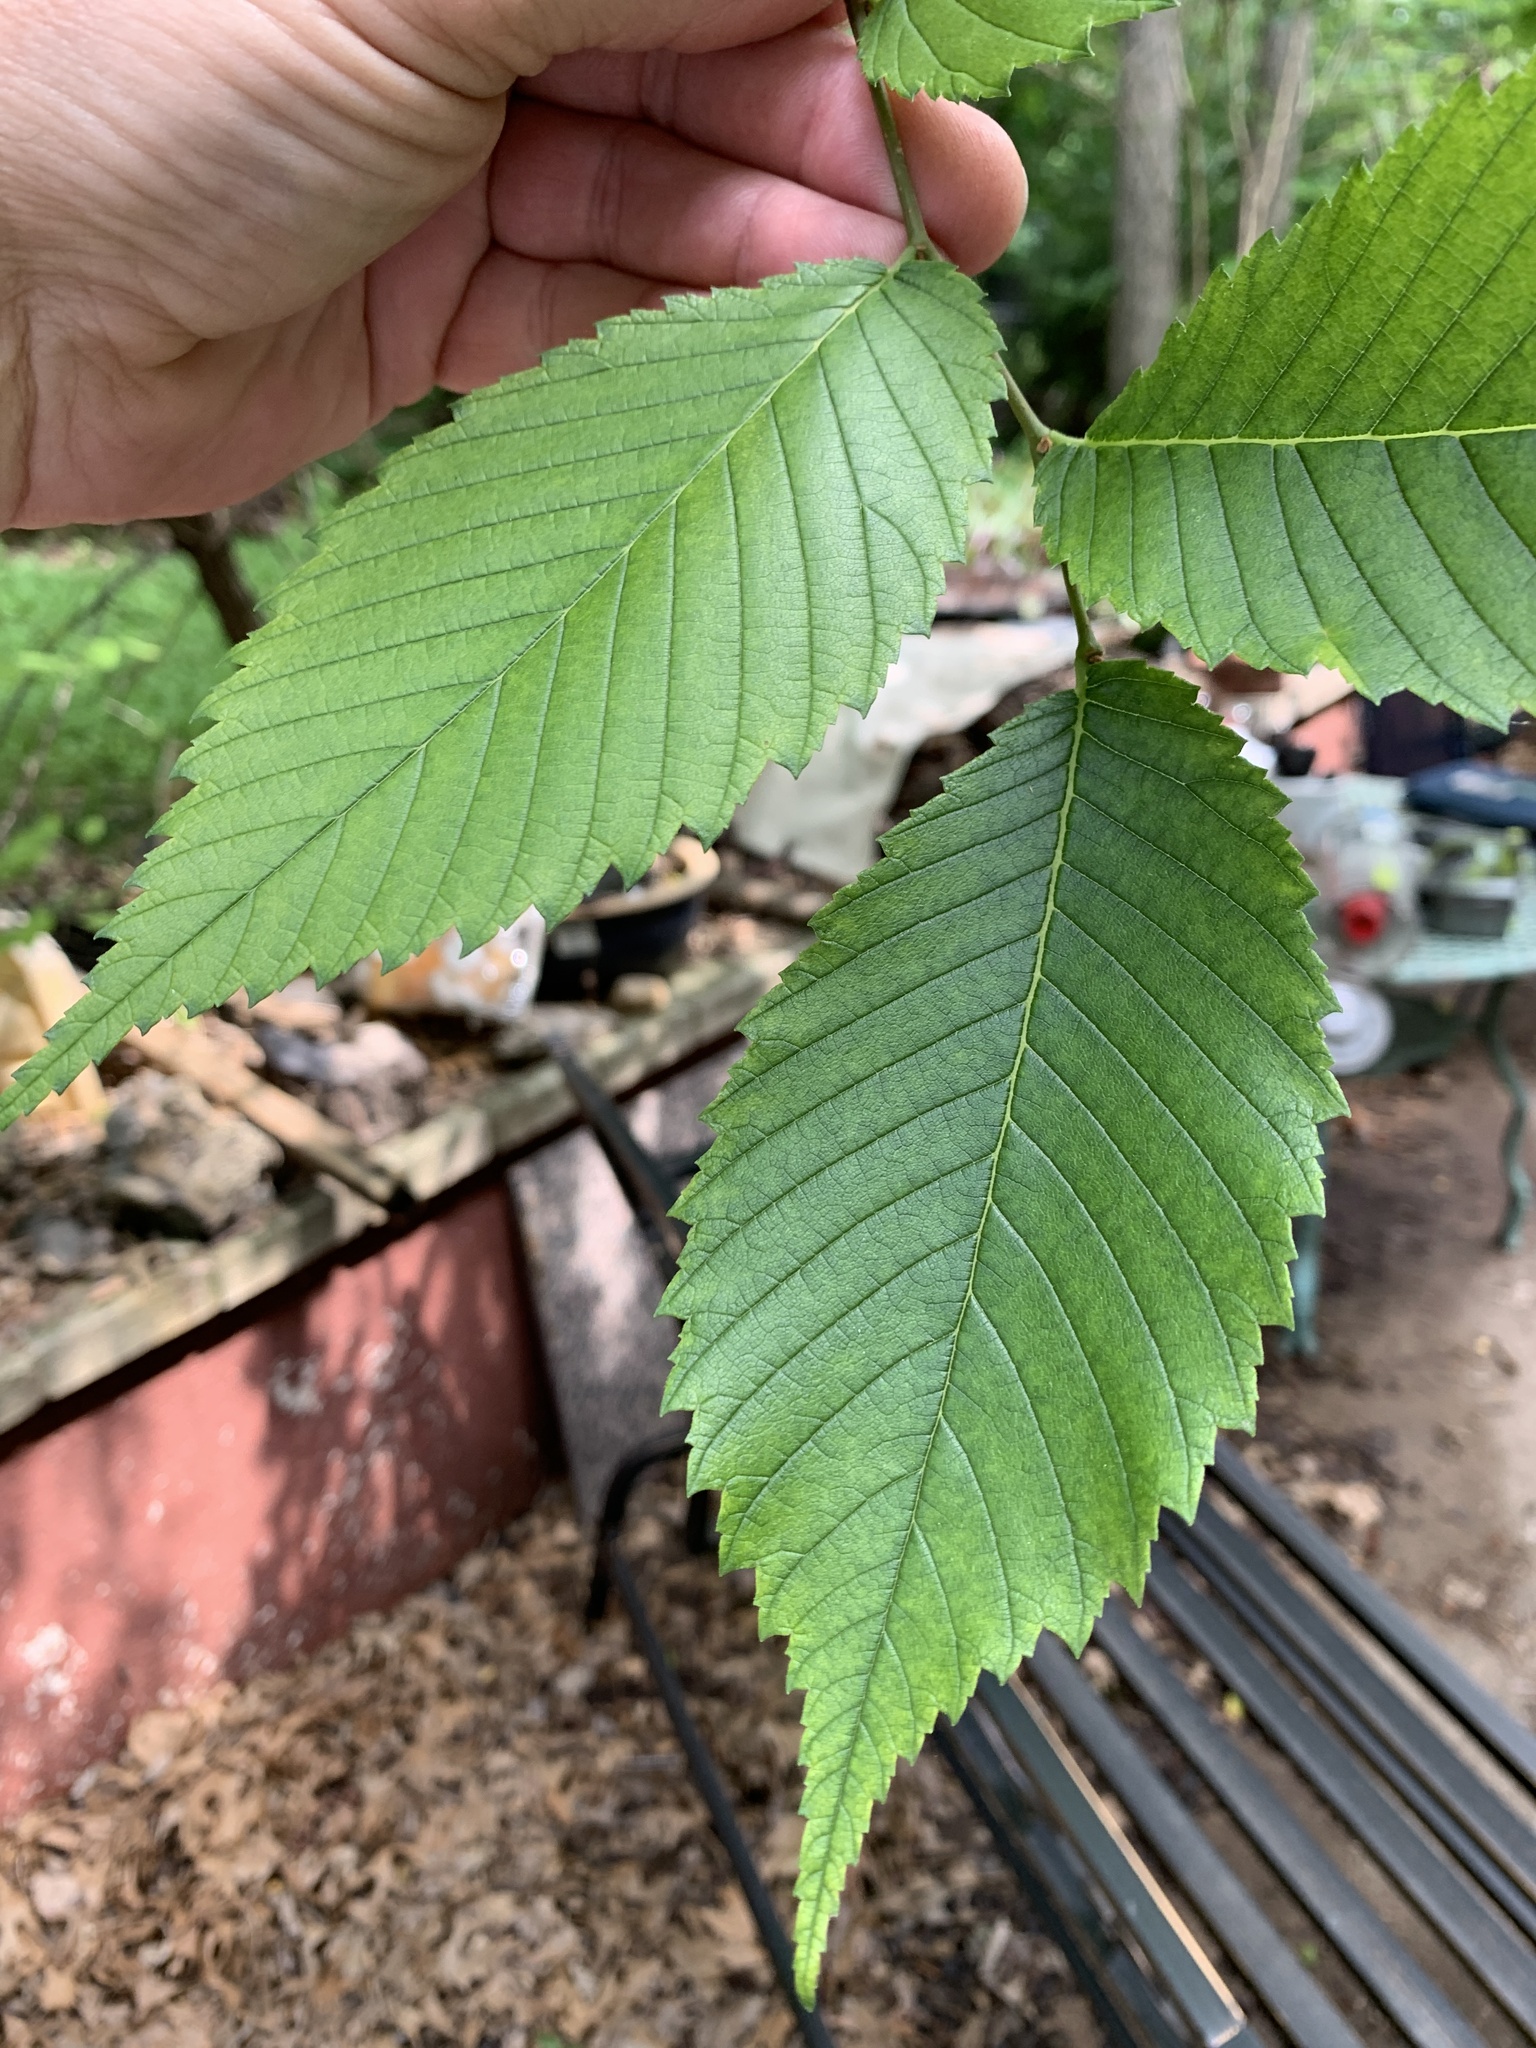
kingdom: Plantae
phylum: Tracheophyta
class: Magnoliopsida
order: Rosales
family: Ulmaceae
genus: Ulmus
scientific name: Ulmus americana
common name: American elm
